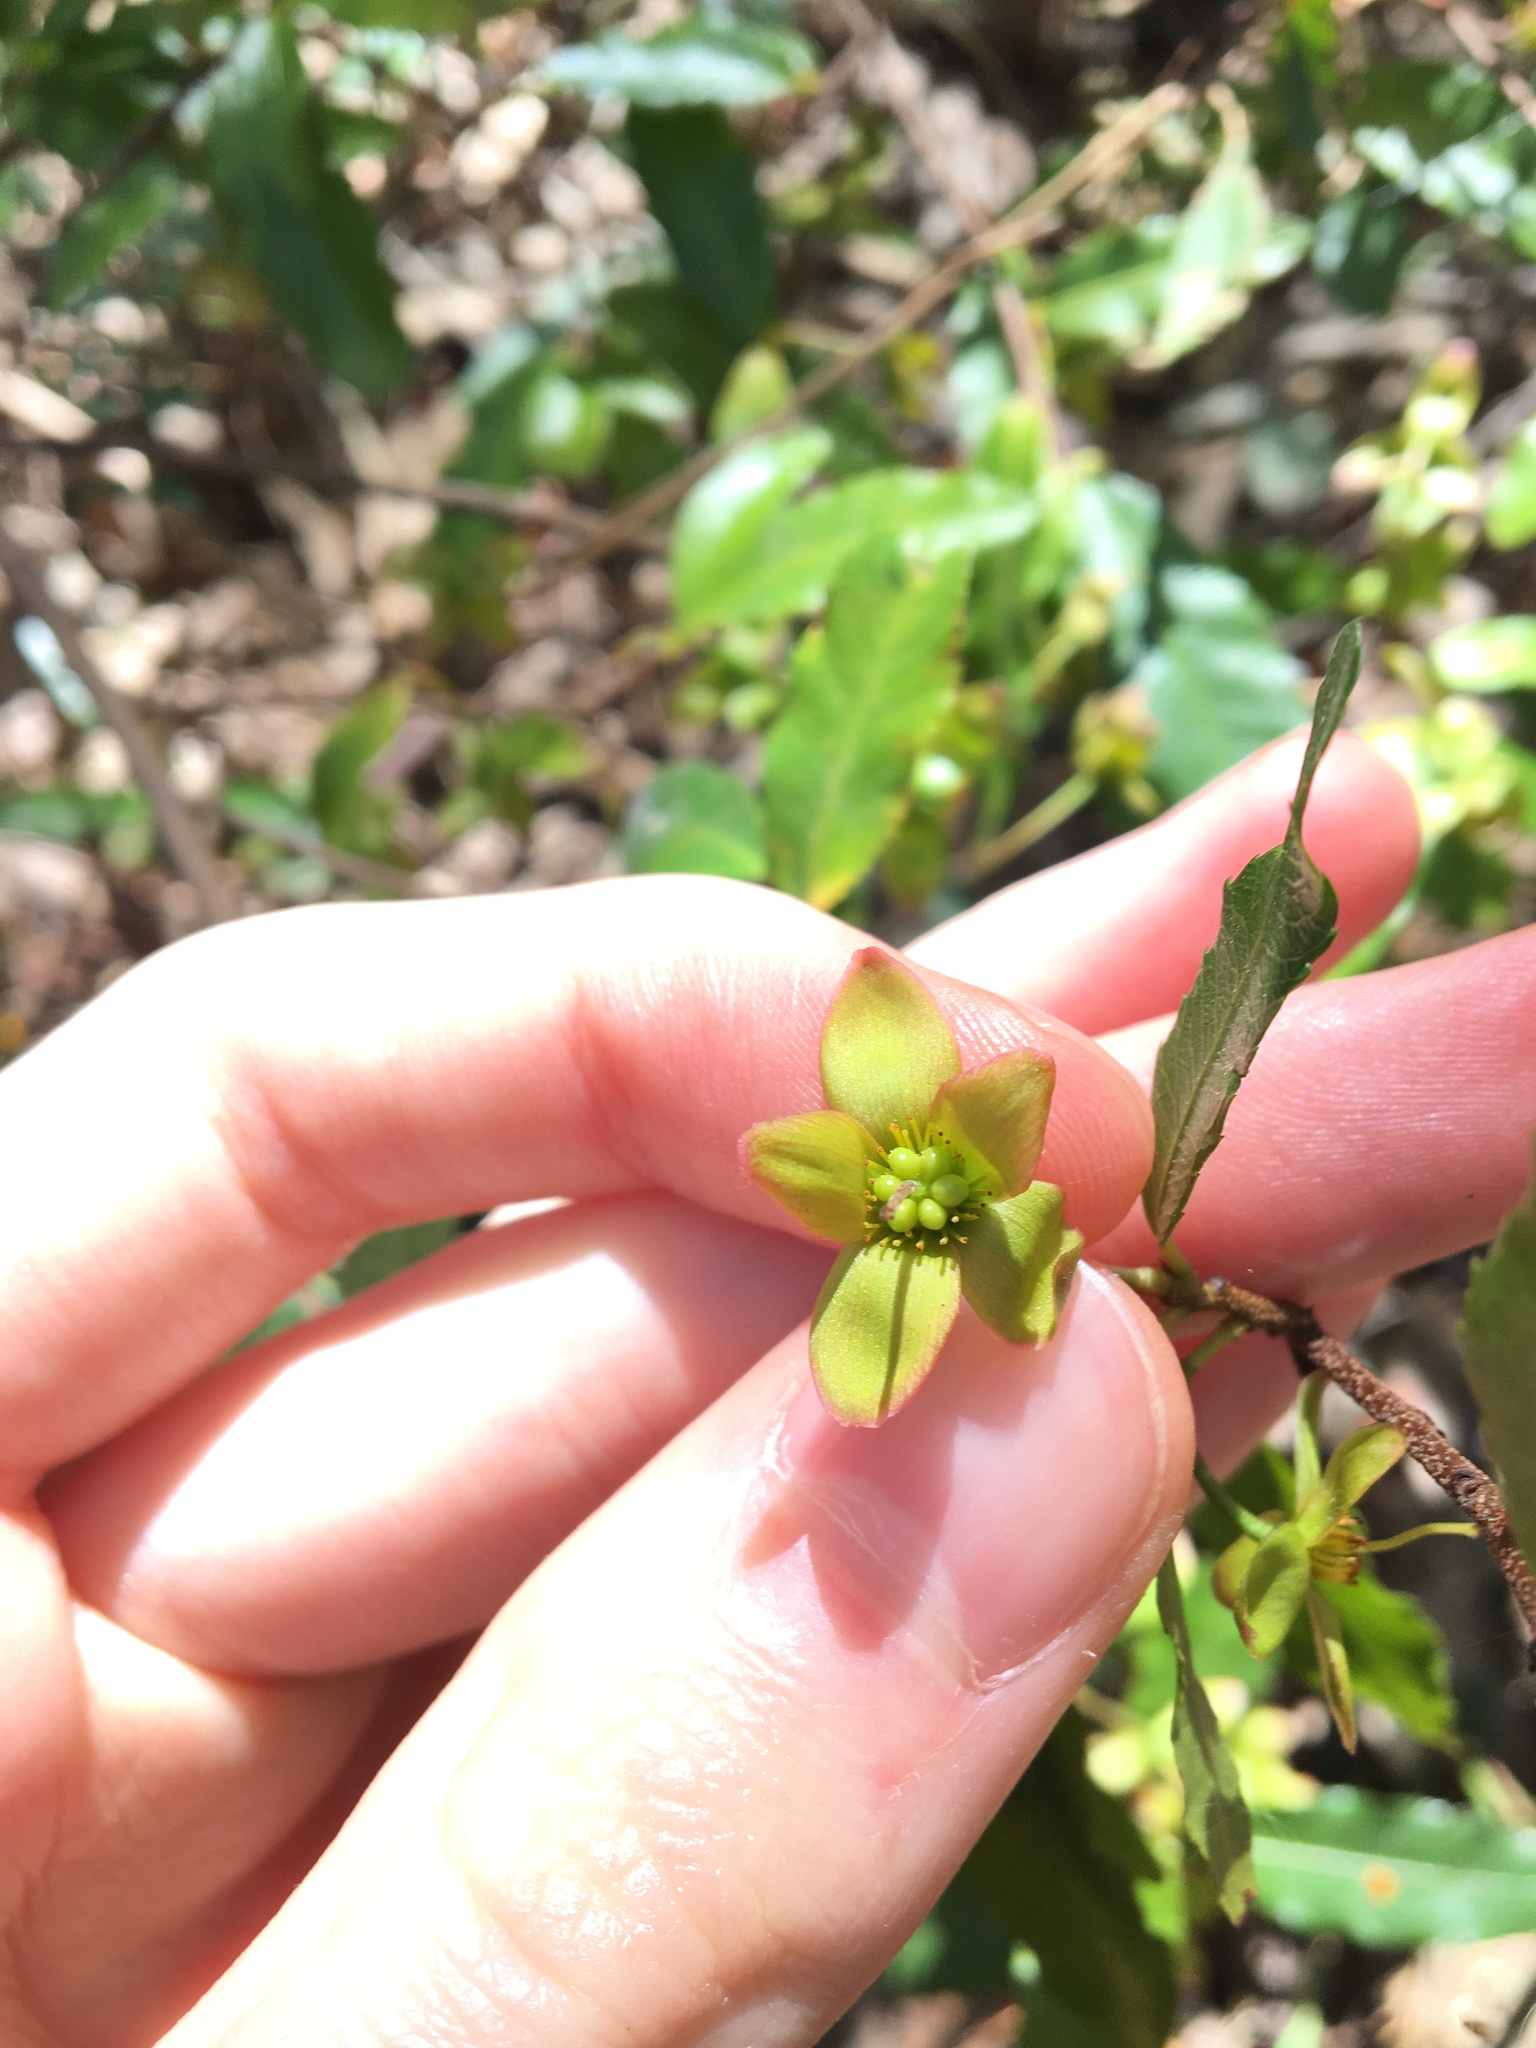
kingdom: Plantae
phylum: Tracheophyta
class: Magnoliopsida
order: Malpighiales
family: Ochnaceae
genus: Ochna
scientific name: Ochna serrulata
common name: Mickey mouse plant
